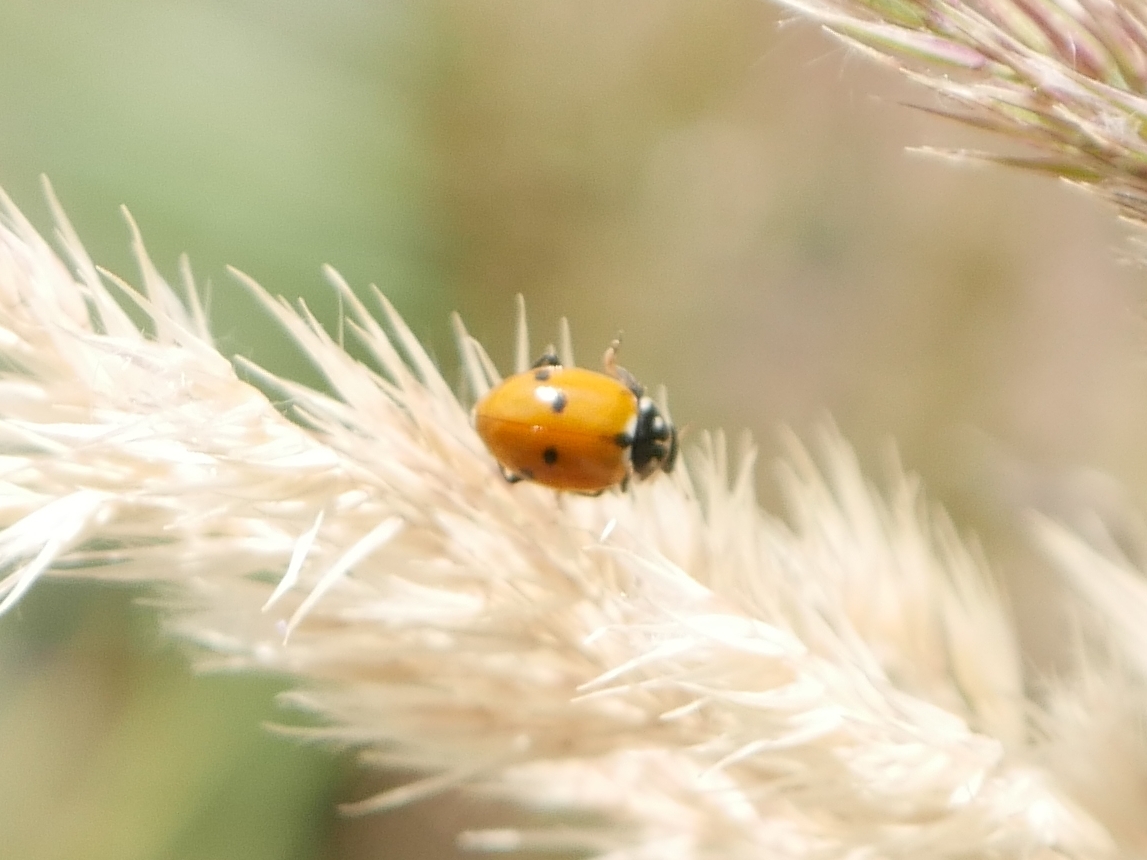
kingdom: Animalia
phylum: Arthropoda
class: Insecta
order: Coleoptera
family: Coccinellidae
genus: Hippodamia
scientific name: Hippodamia variegata
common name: Ladybird beetle
